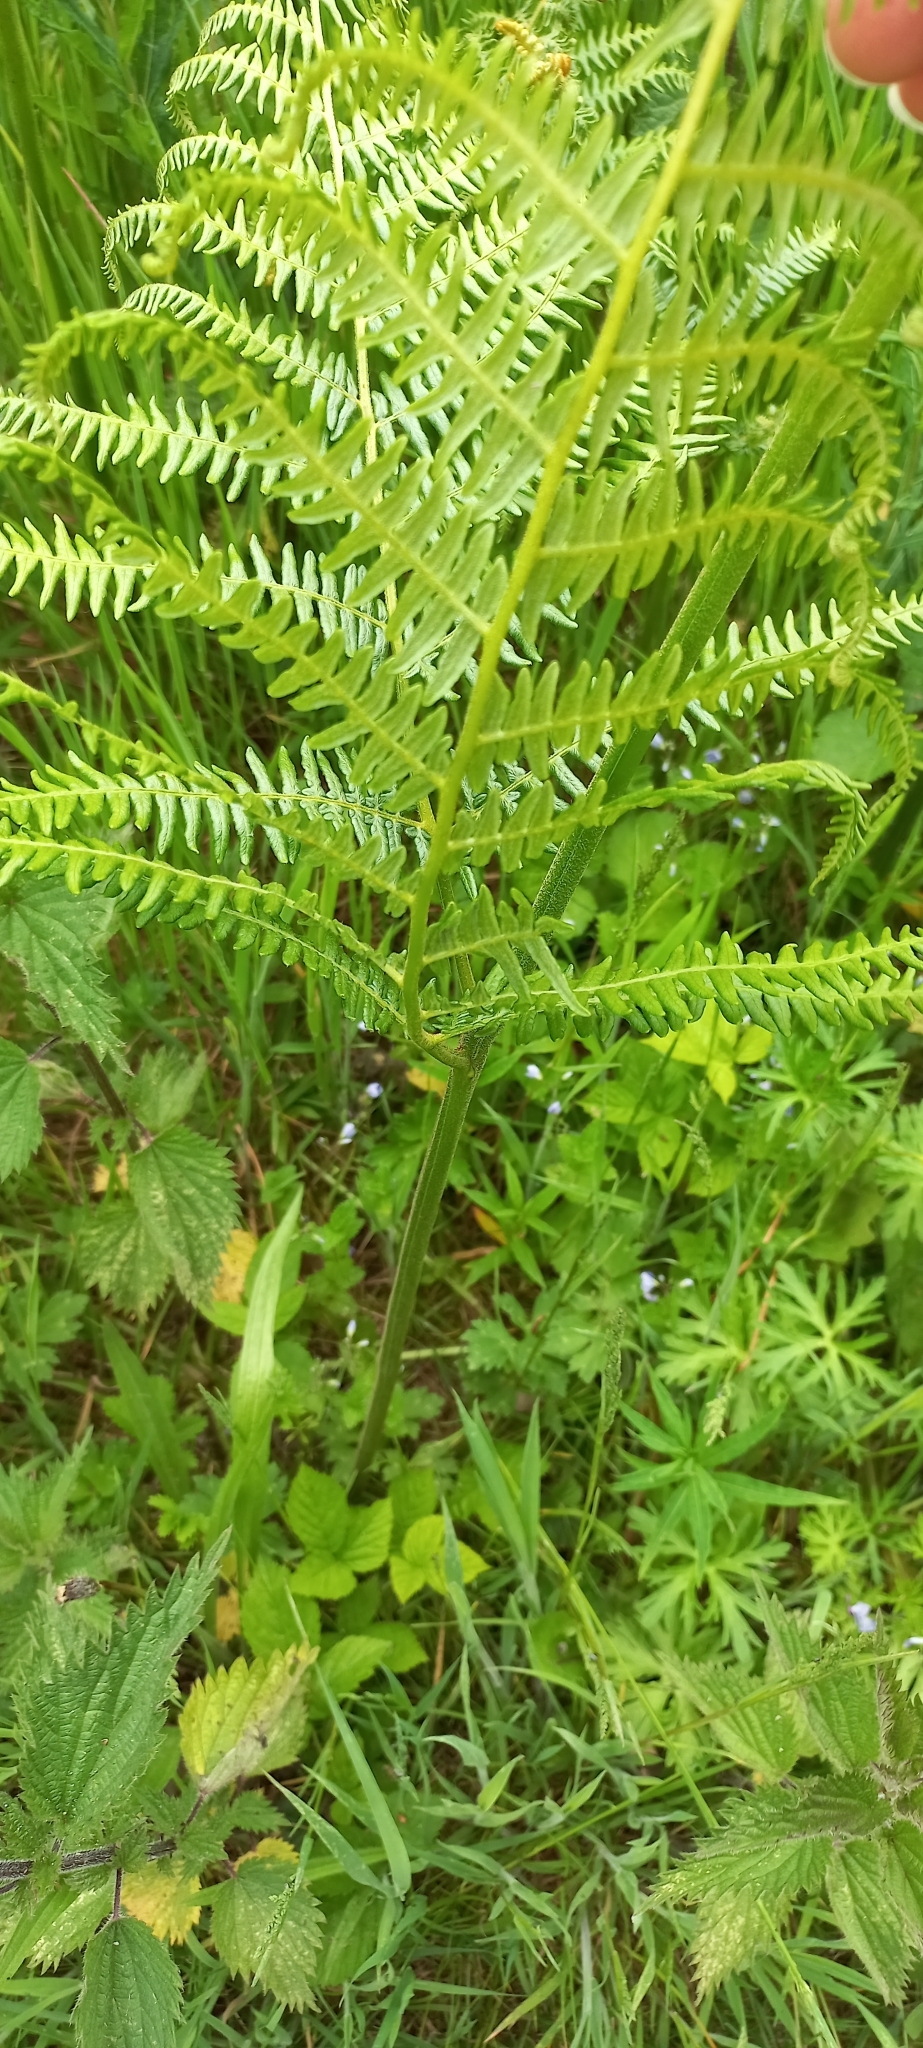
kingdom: Plantae
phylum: Tracheophyta
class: Polypodiopsida
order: Polypodiales
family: Dennstaedtiaceae
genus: Pteridium
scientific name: Pteridium aquilinum
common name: Bracken
